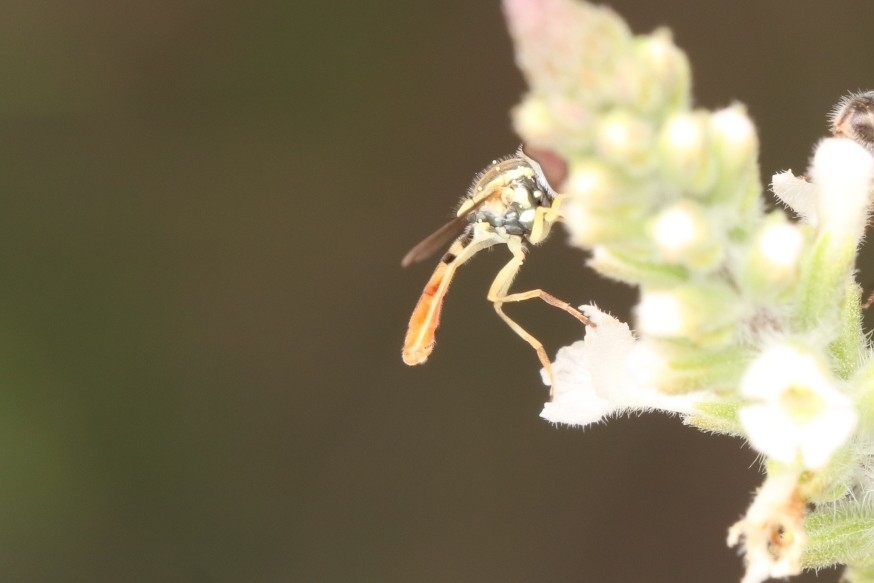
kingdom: Animalia
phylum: Arthropoda
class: Insecta
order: Diptera
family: Syrphidae
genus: Toxomerus
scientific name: Toxomerus marginatus
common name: Syrphid fly
